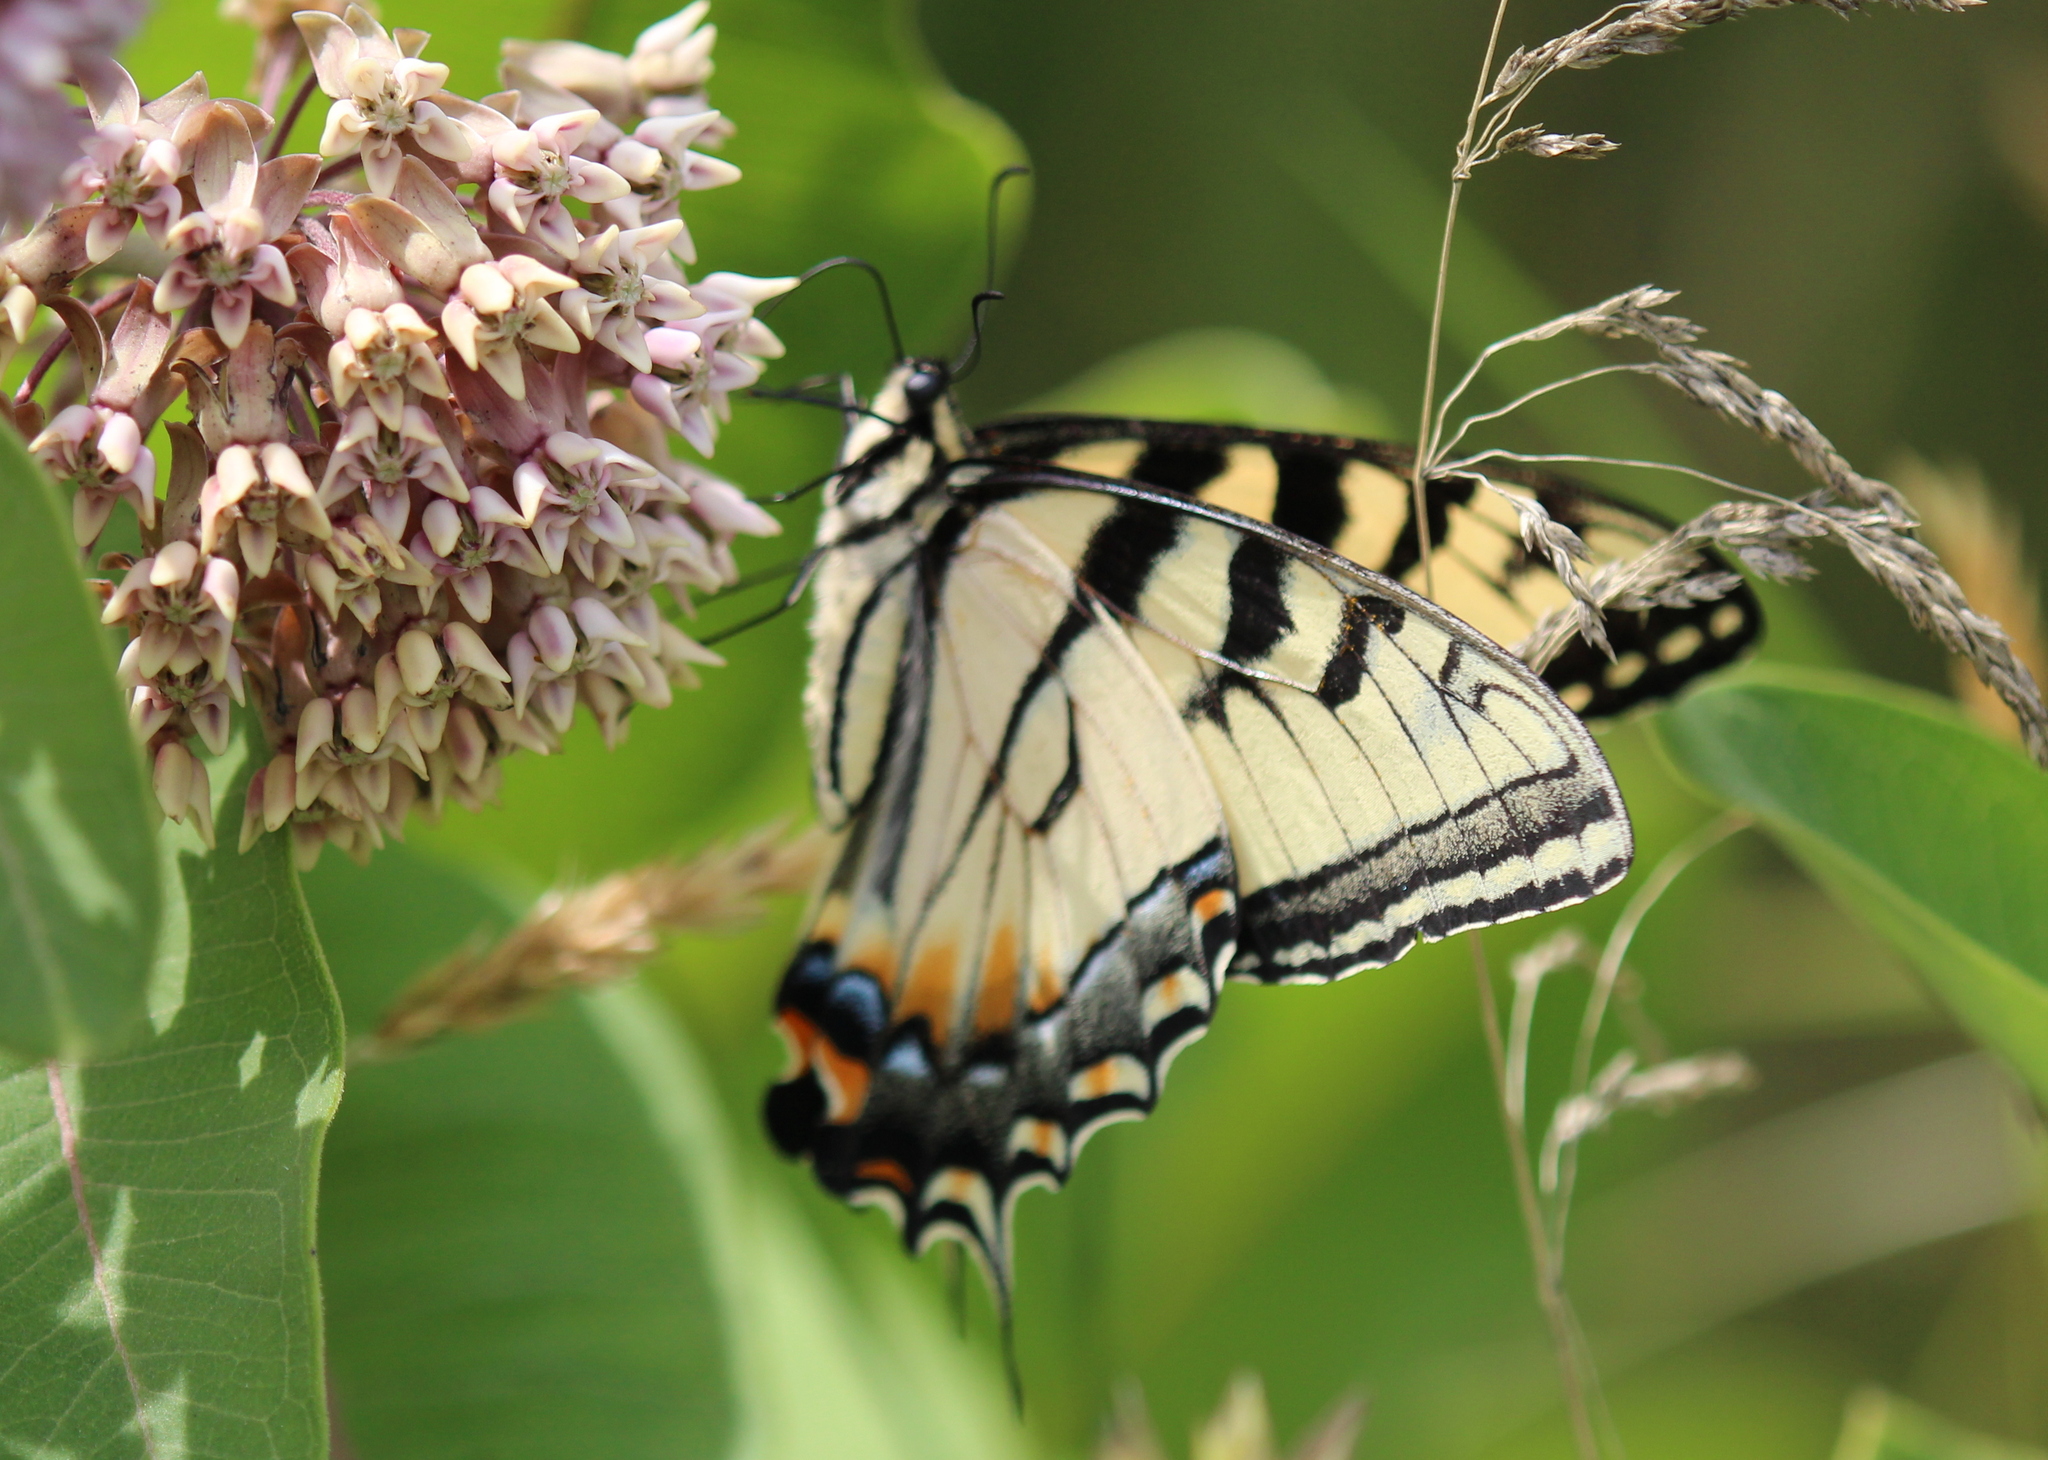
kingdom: Animalia
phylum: Arthropoda
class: Insecta
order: Lepidoptera
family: Papilionidae
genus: Papilio
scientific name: Papilio canadensis
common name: Canadian tiger swallowtail
